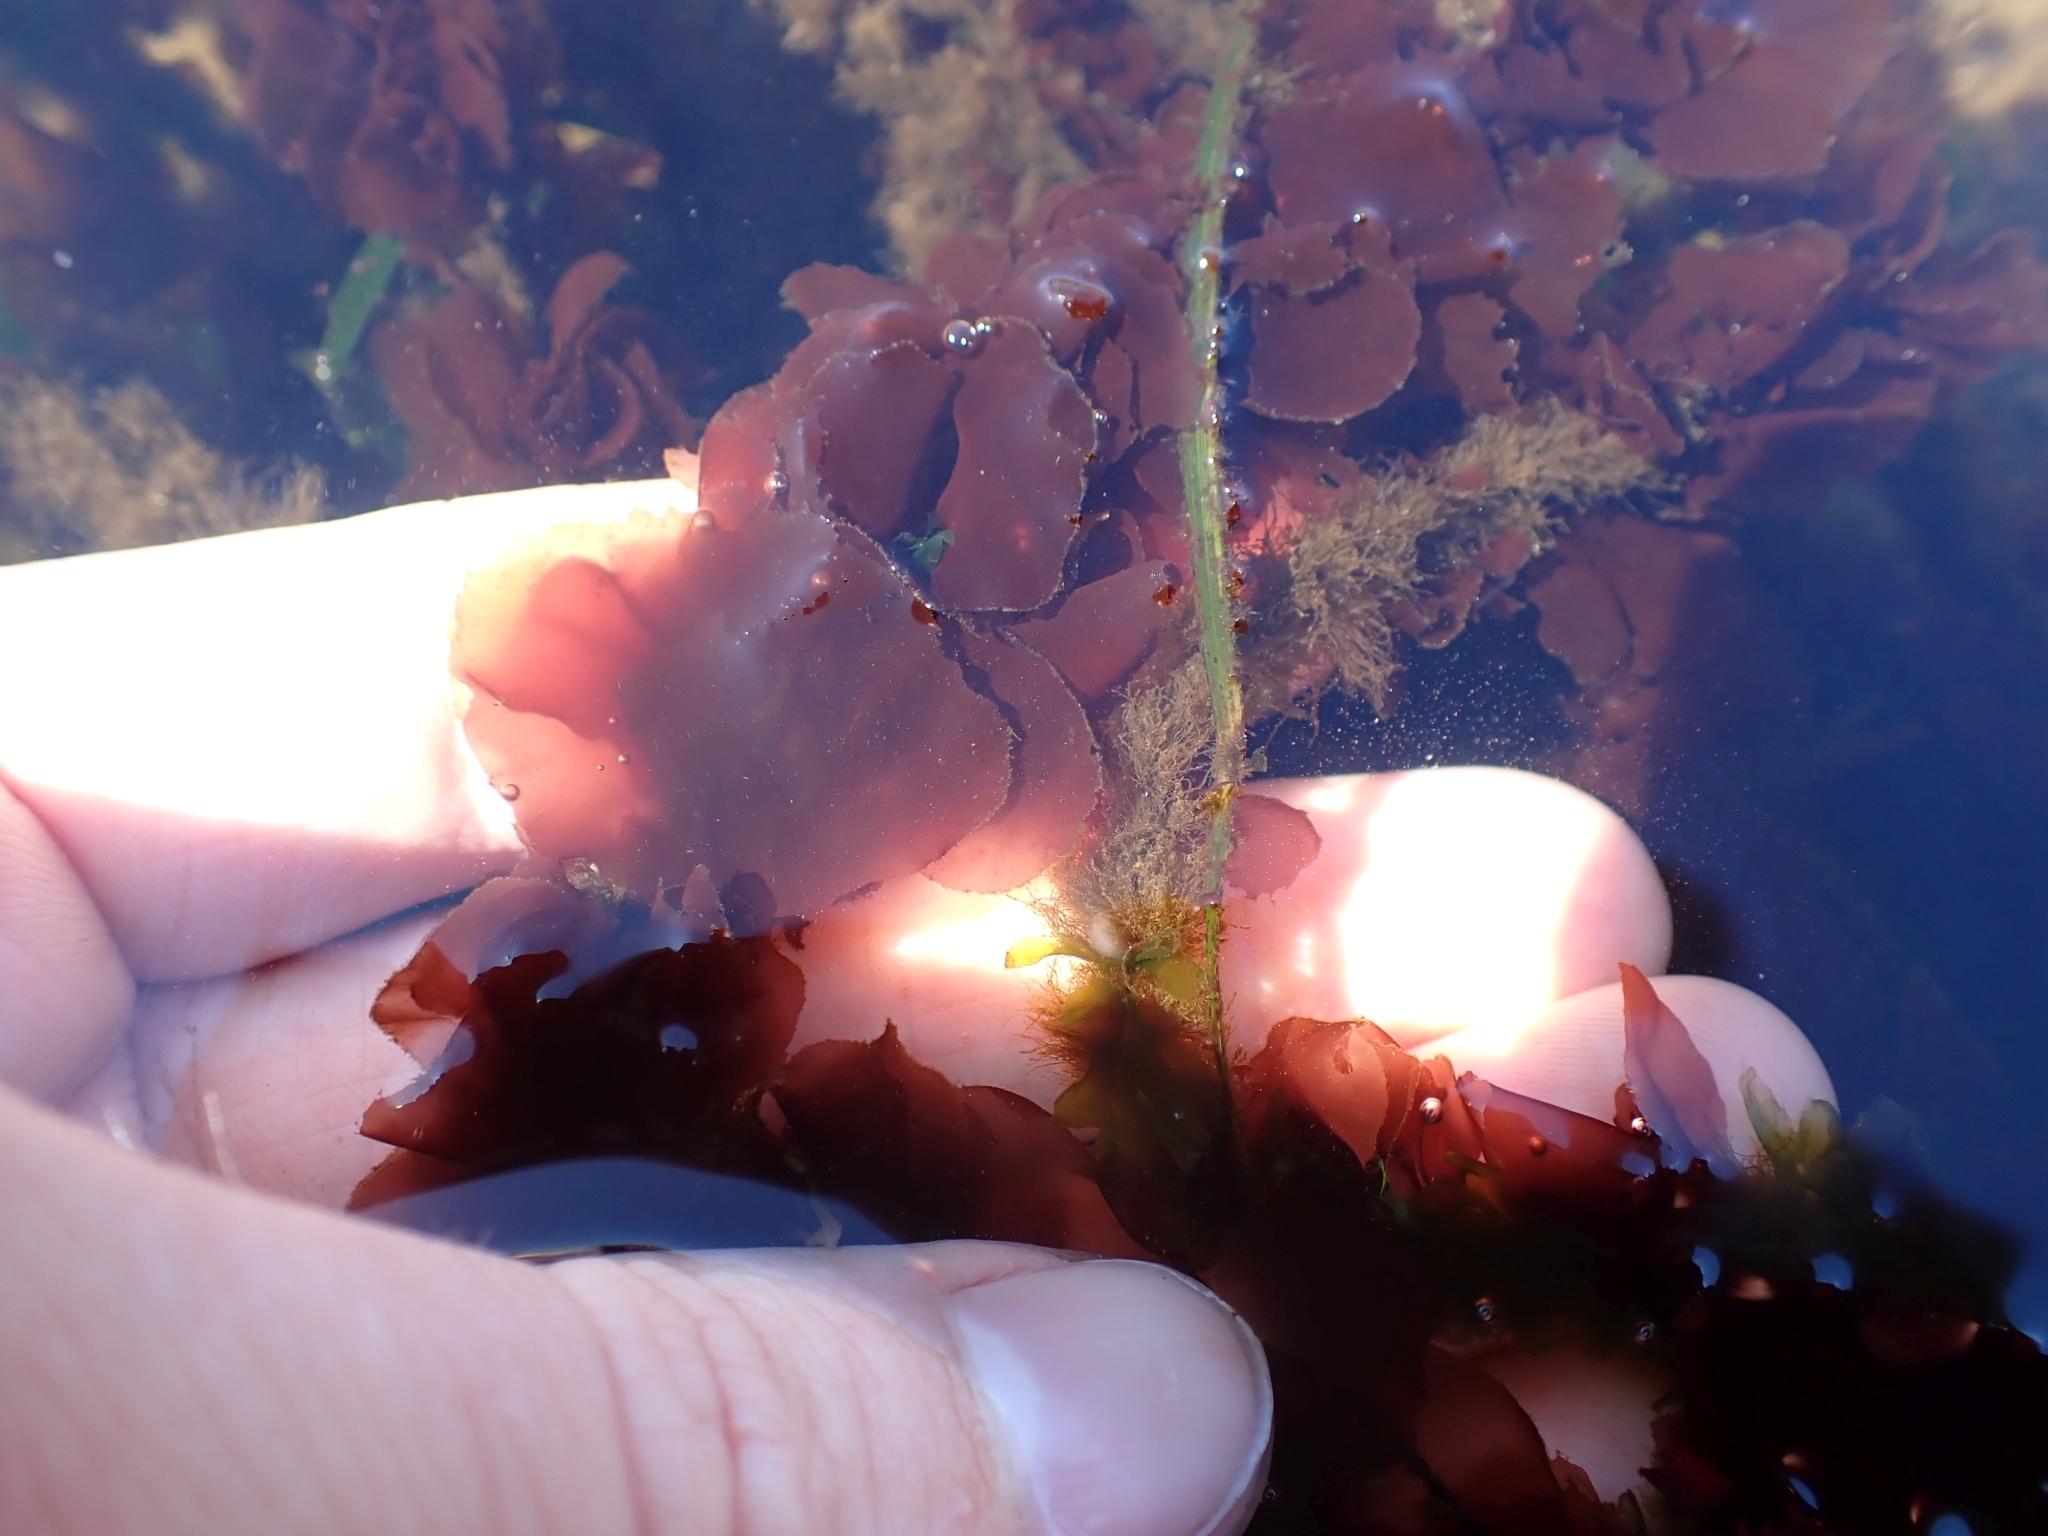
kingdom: Plantae
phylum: Rhodophyta
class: Compsopogonophyceae
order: Erythropeltidales
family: Erythrotrichiaceae
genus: Smithora
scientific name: Smithora naiadum
